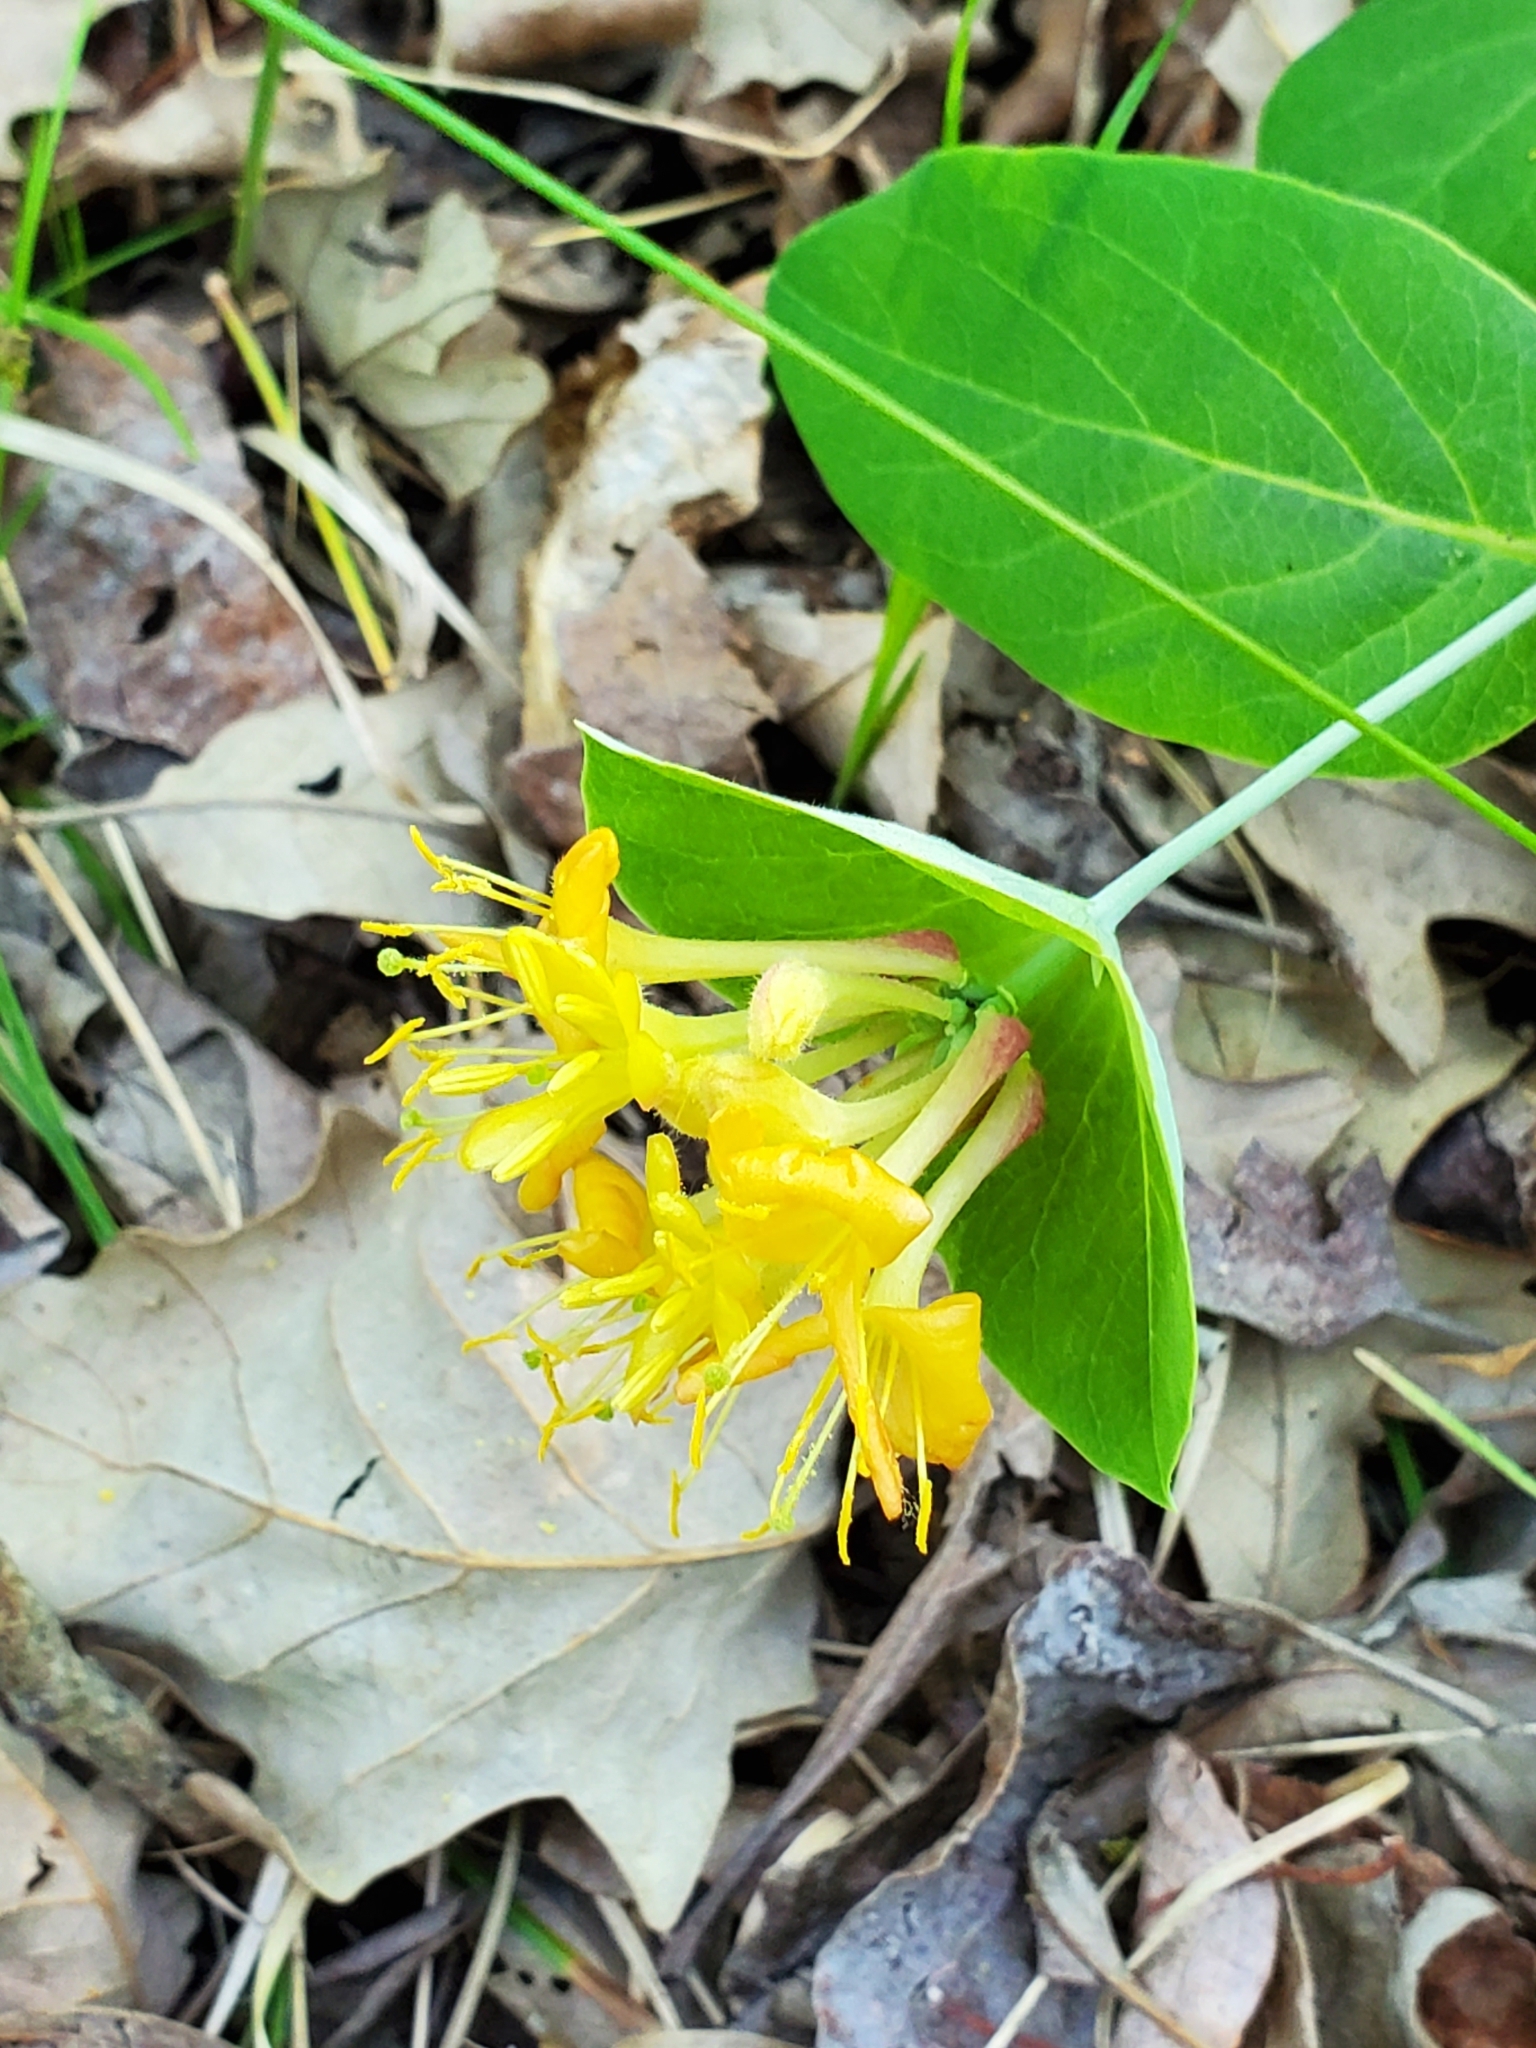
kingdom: Plantae
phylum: Tracheophyta
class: Magnoliopsida
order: Dipsacales
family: Caprifoliaceae
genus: Lonicera
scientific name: Lonicera dioica
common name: Limber honeysuckle
